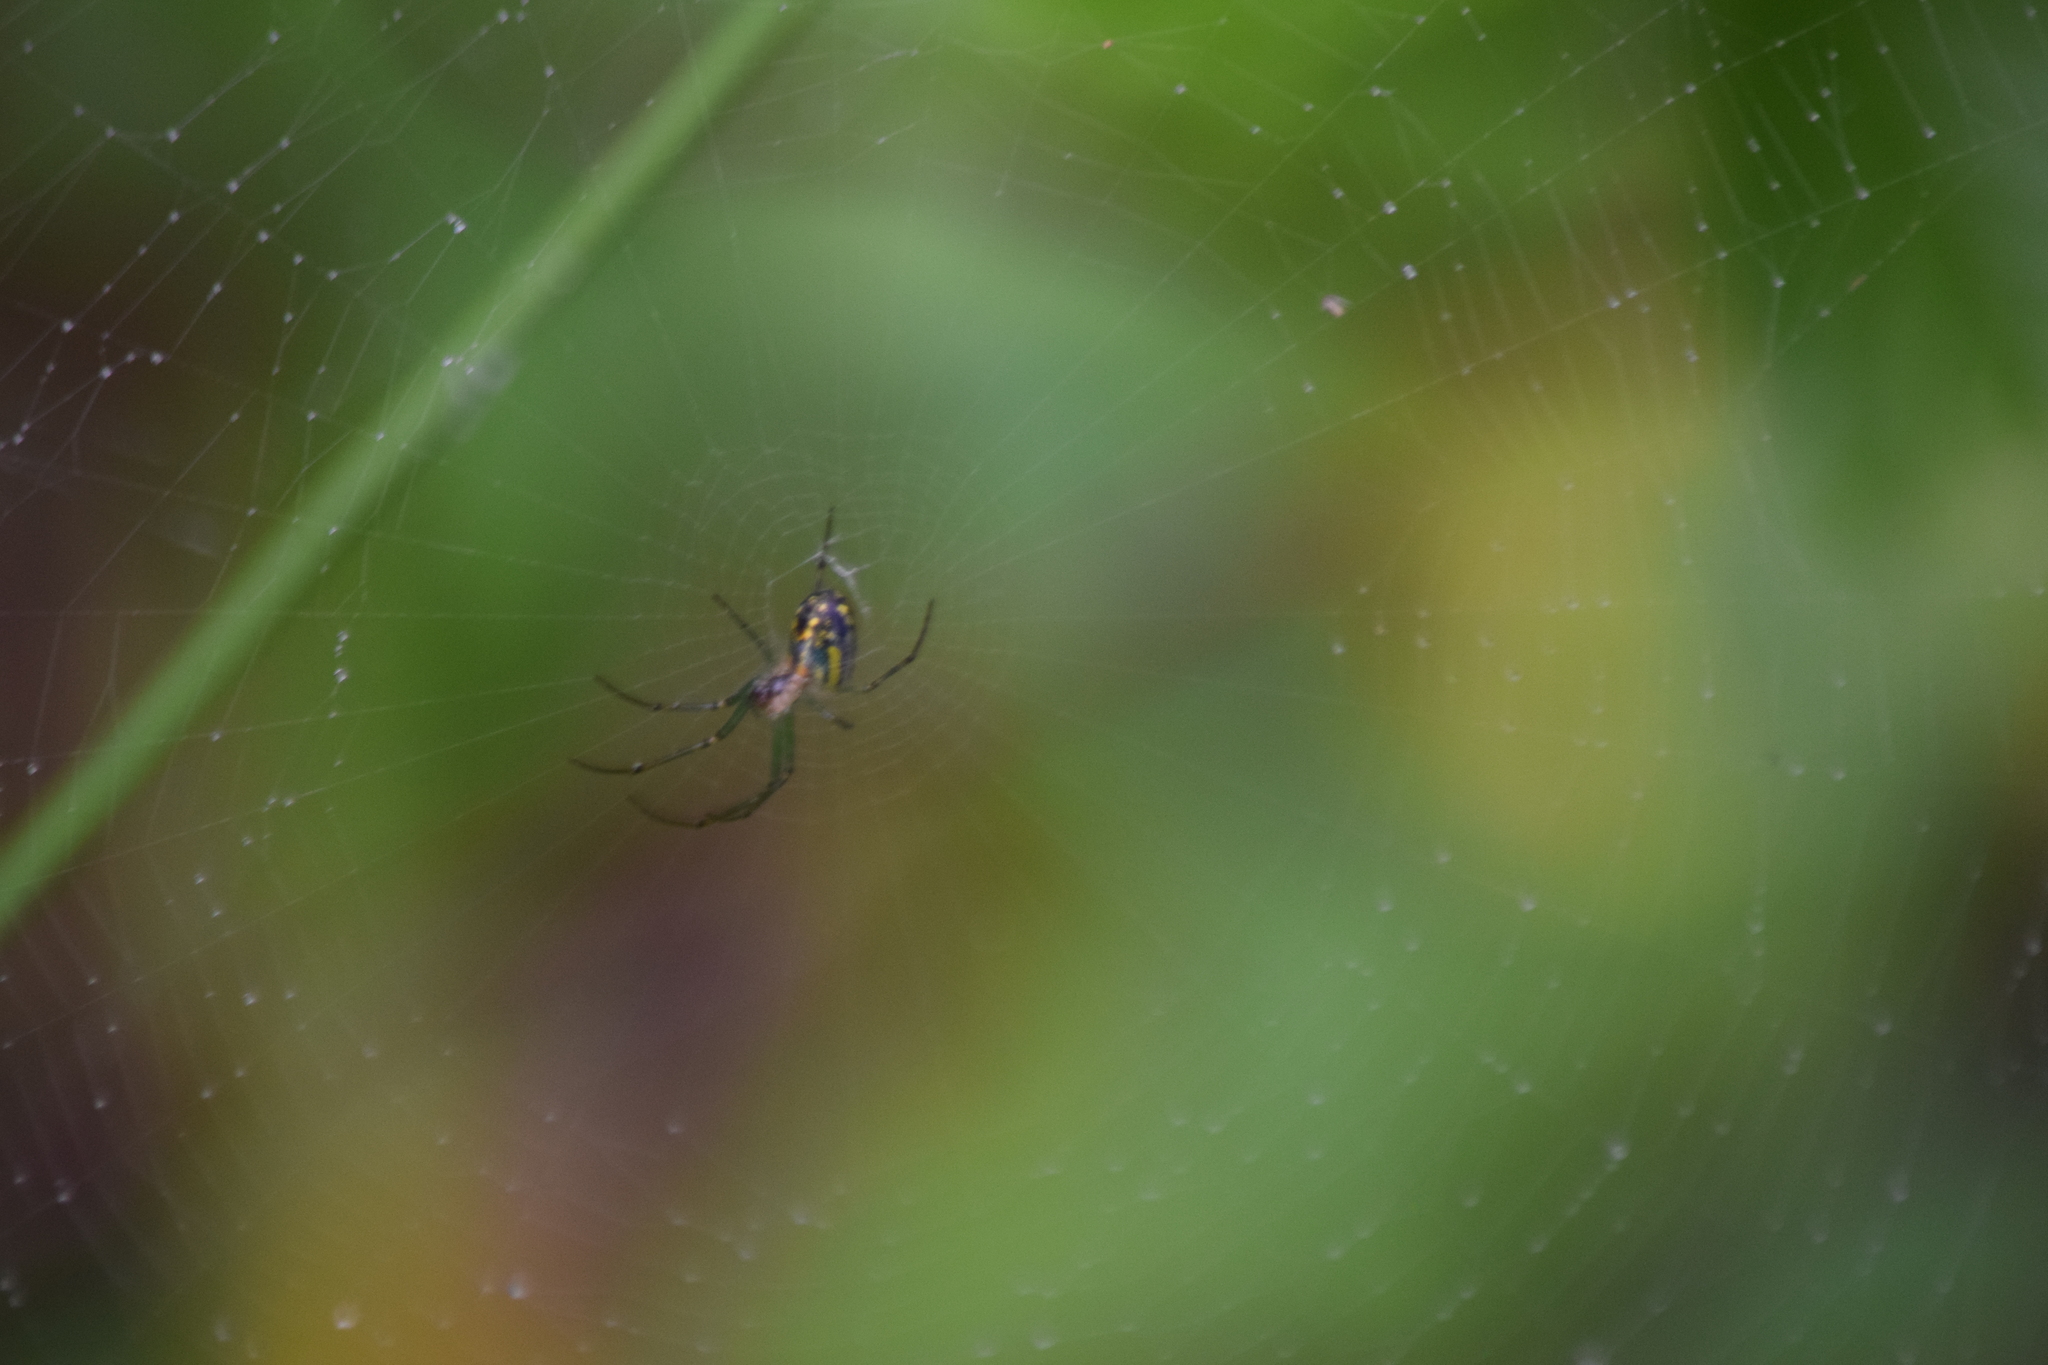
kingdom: Animalia
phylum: Arthropoda
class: Arachnida
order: Araneae
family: Tetragnathidae
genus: Leucauge
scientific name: Leucauge venusta
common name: Longjawed orb weavers
